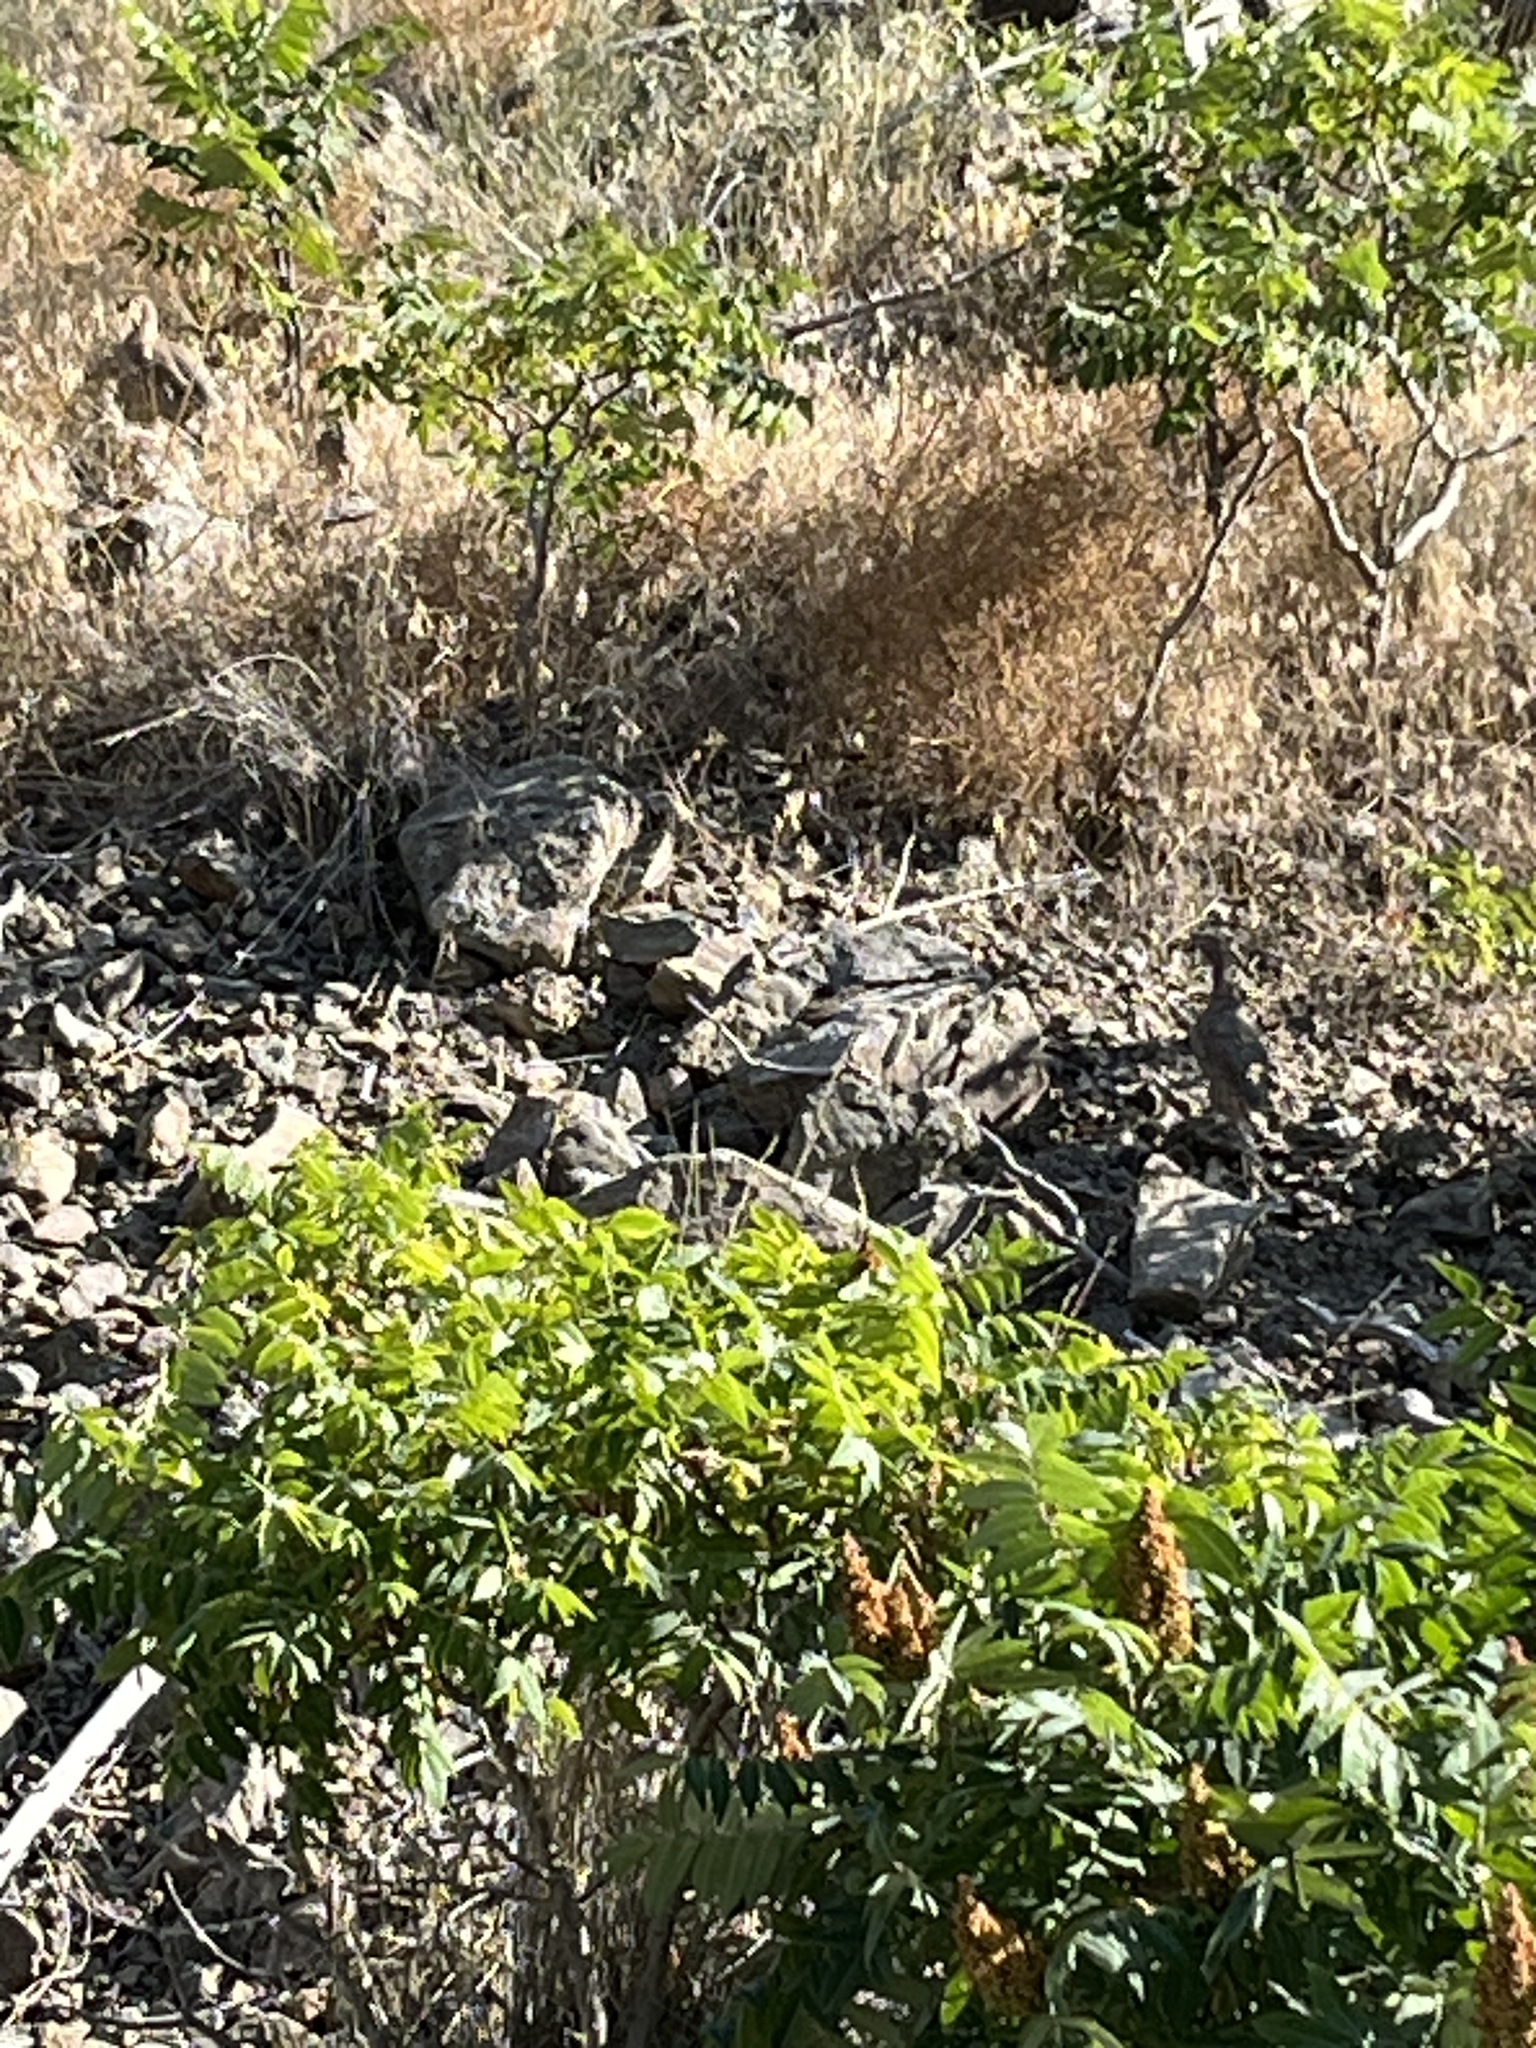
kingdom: Animalia
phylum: Chordata
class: Aves
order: Galliformes
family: Phasianidae
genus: Alectoris
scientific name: Alectoris chukar
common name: Chukar
